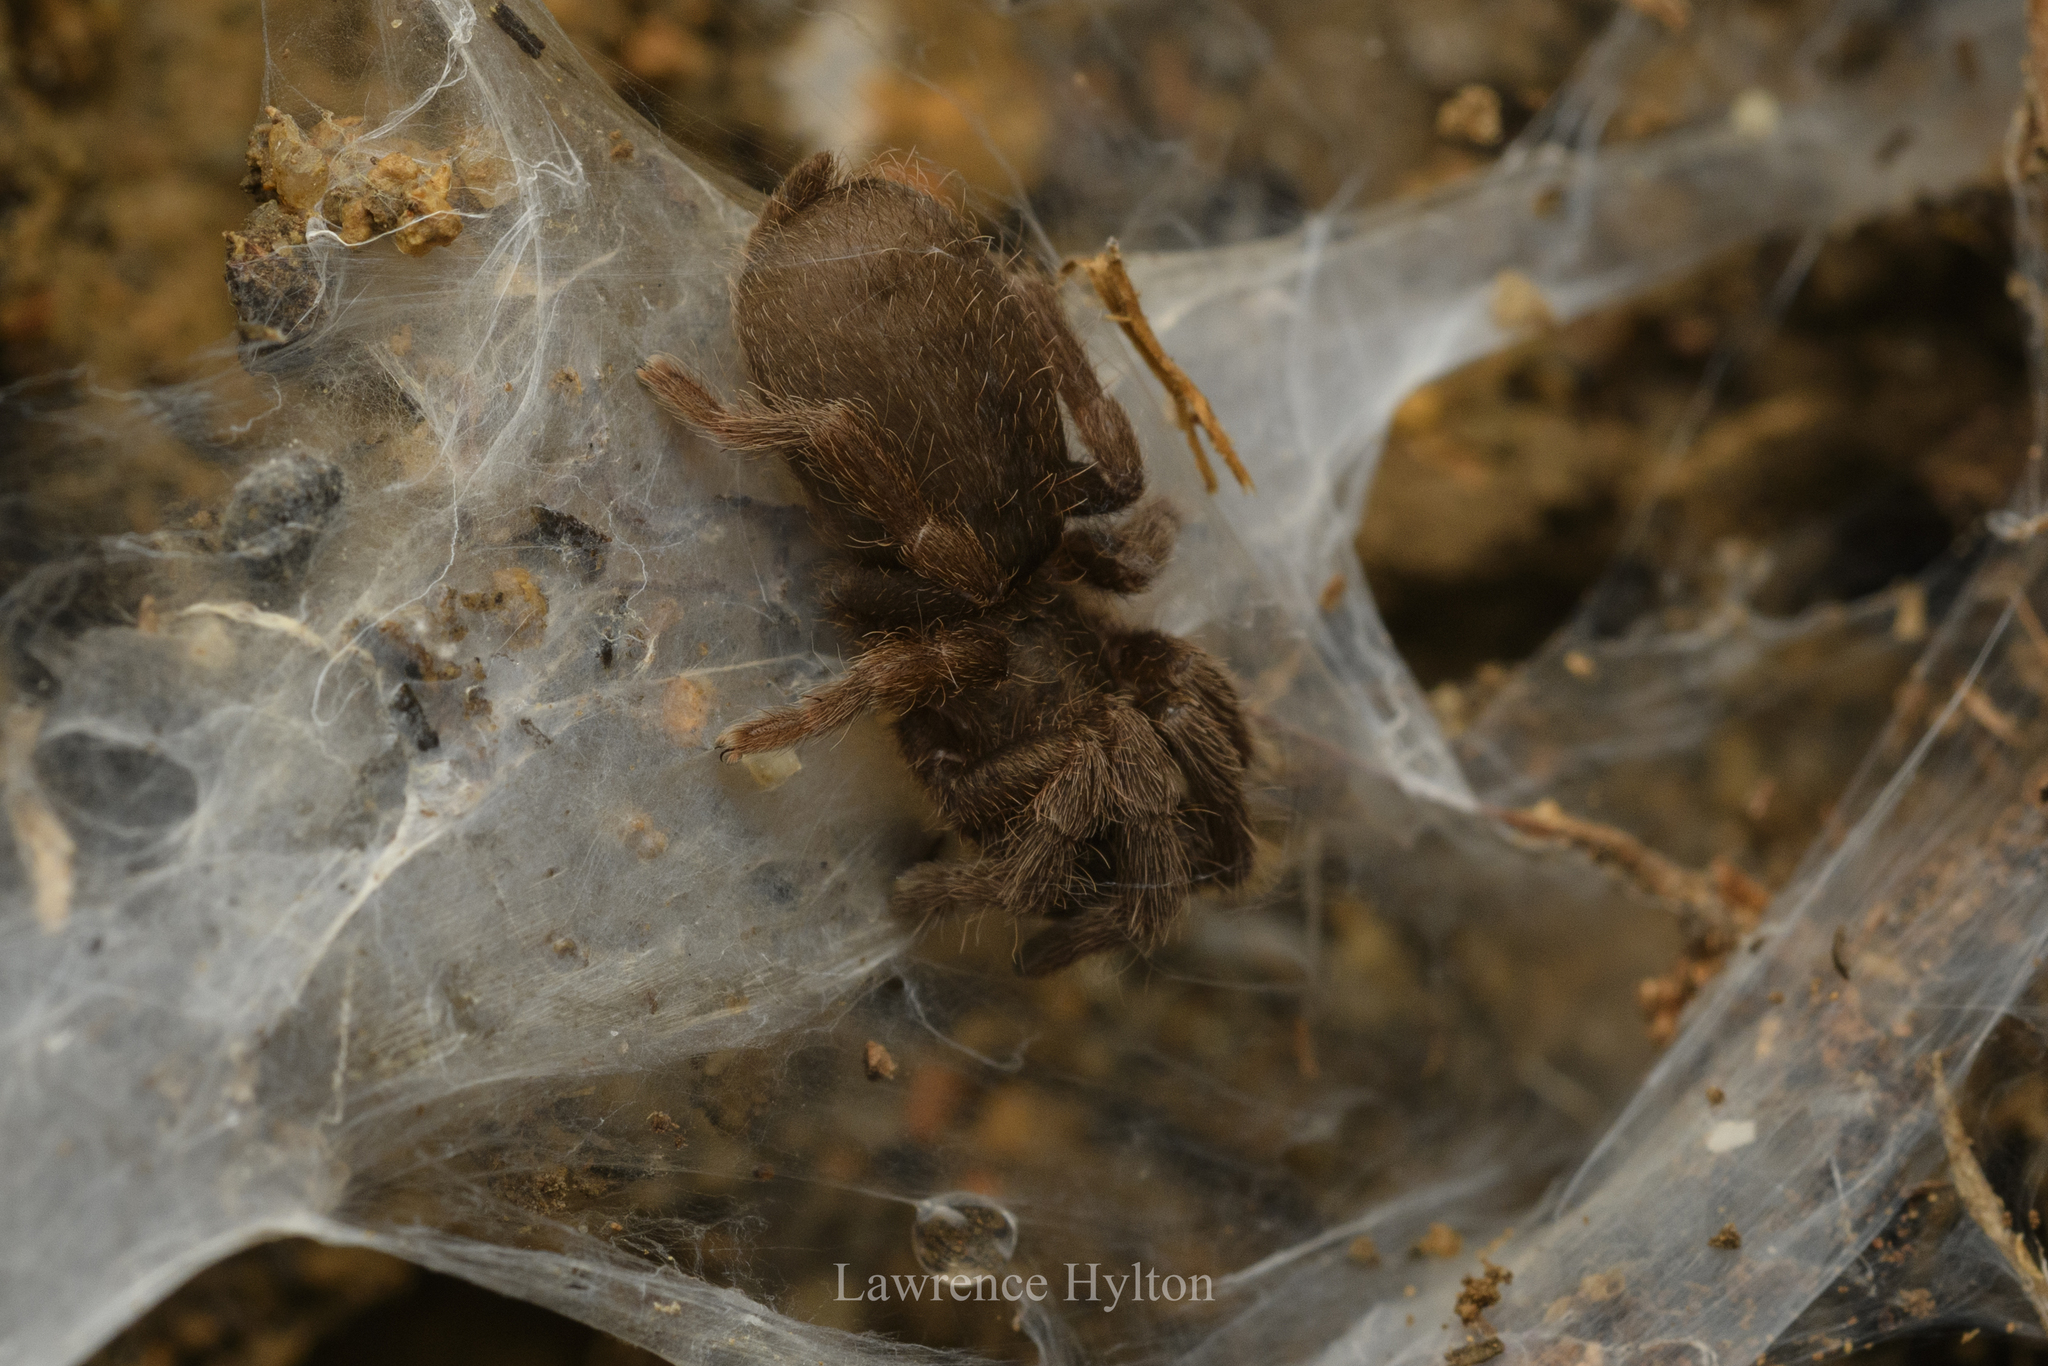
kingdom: Animalia
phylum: Arthropoda
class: Arachnida
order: Araneae
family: Theraphosidae
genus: Phlogiellus
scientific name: Phlogiellus
